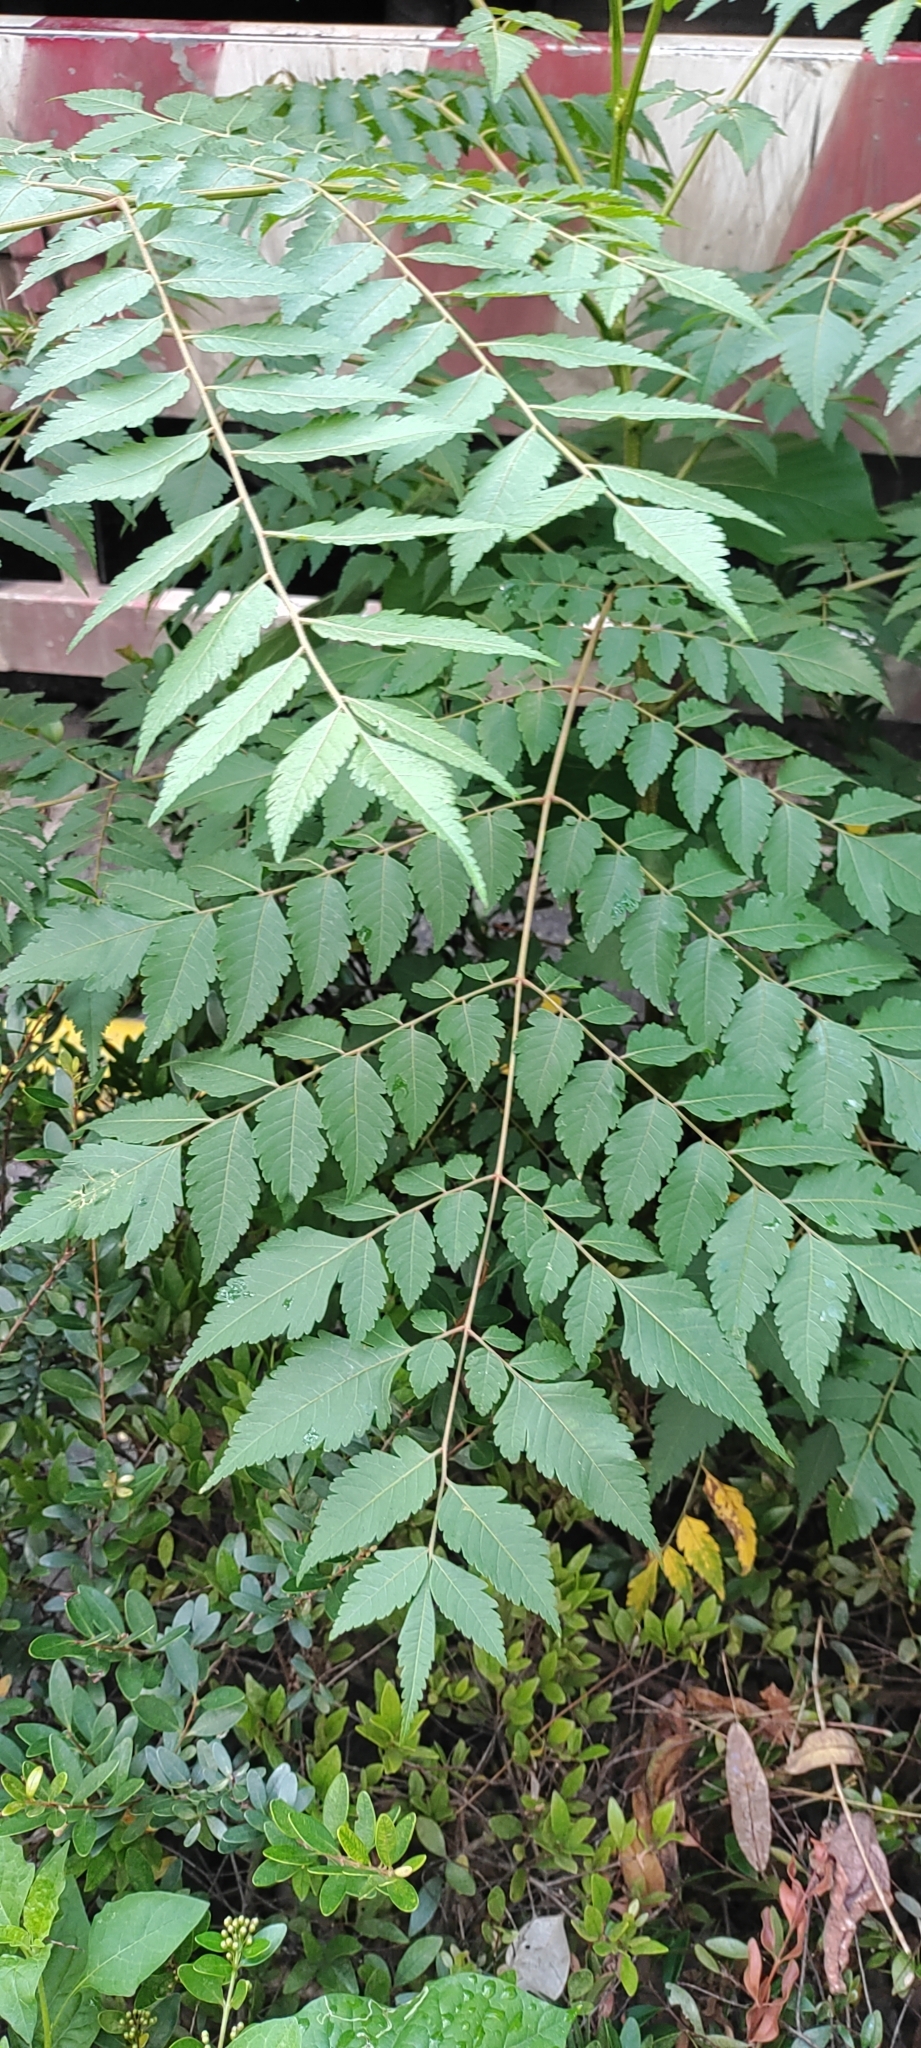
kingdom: Plantae
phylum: Tracheophyta
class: Magnoliopsida
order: Sapindales
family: Sapindaceae
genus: Koelreuteria
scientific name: Koelreuteria elegans
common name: Chinese flame tree
